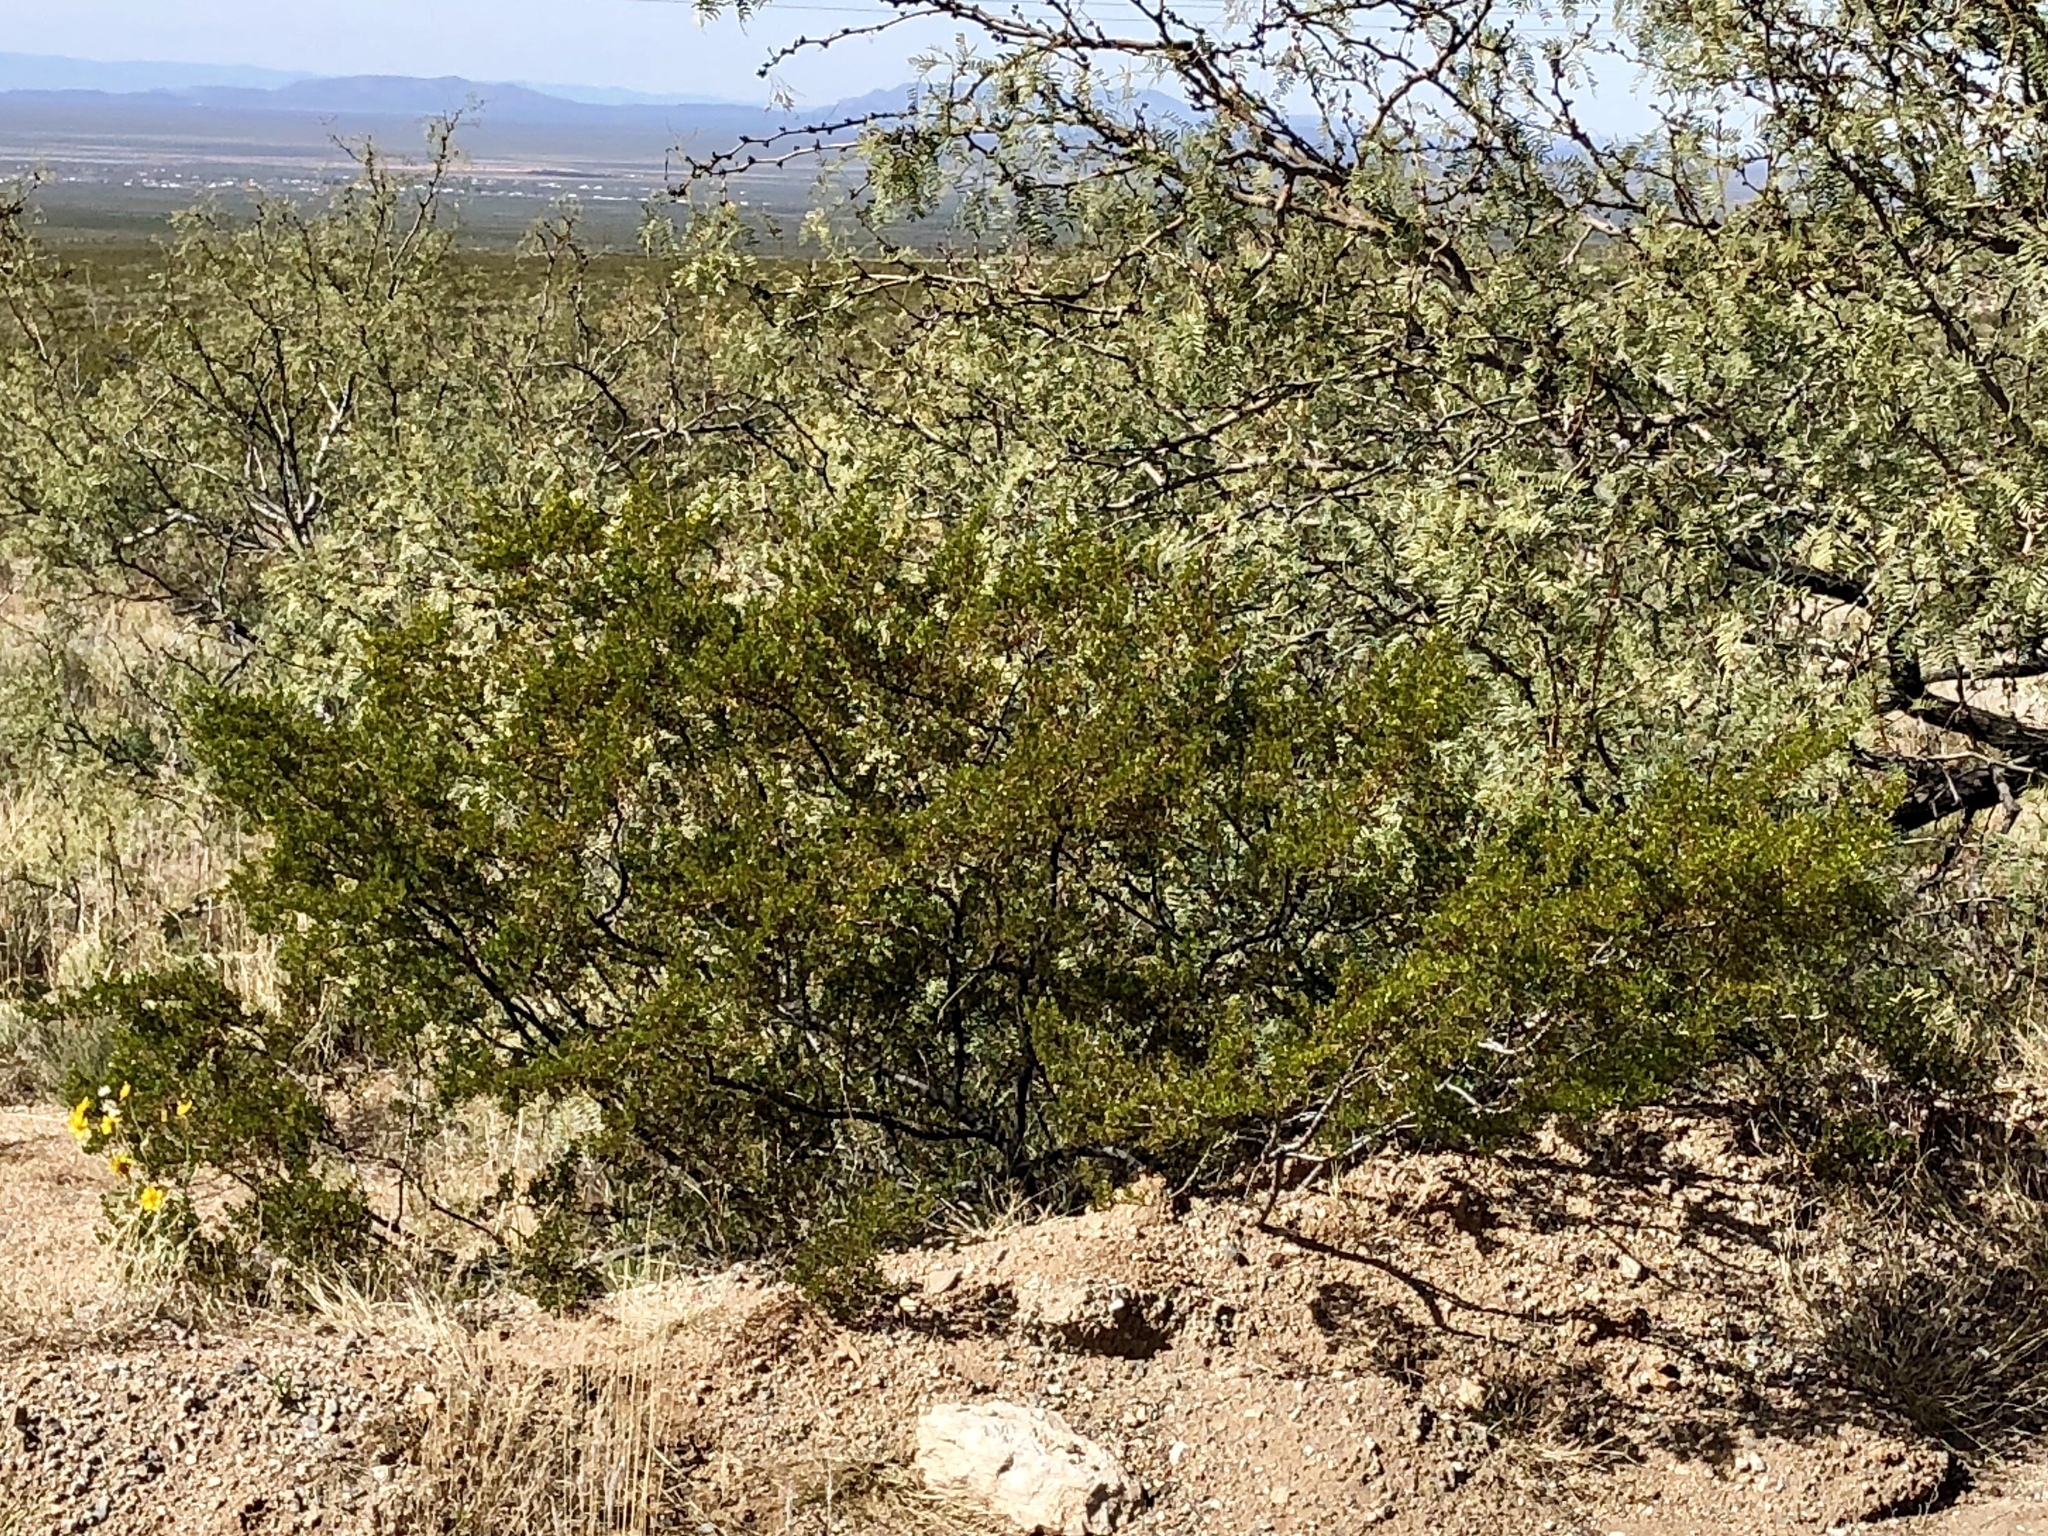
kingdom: Plantae
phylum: Tracheophyta
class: Magnoliopsida
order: Zygophyllales
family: Zygophyllaceae
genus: Larrea
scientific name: Larrea tridentata
